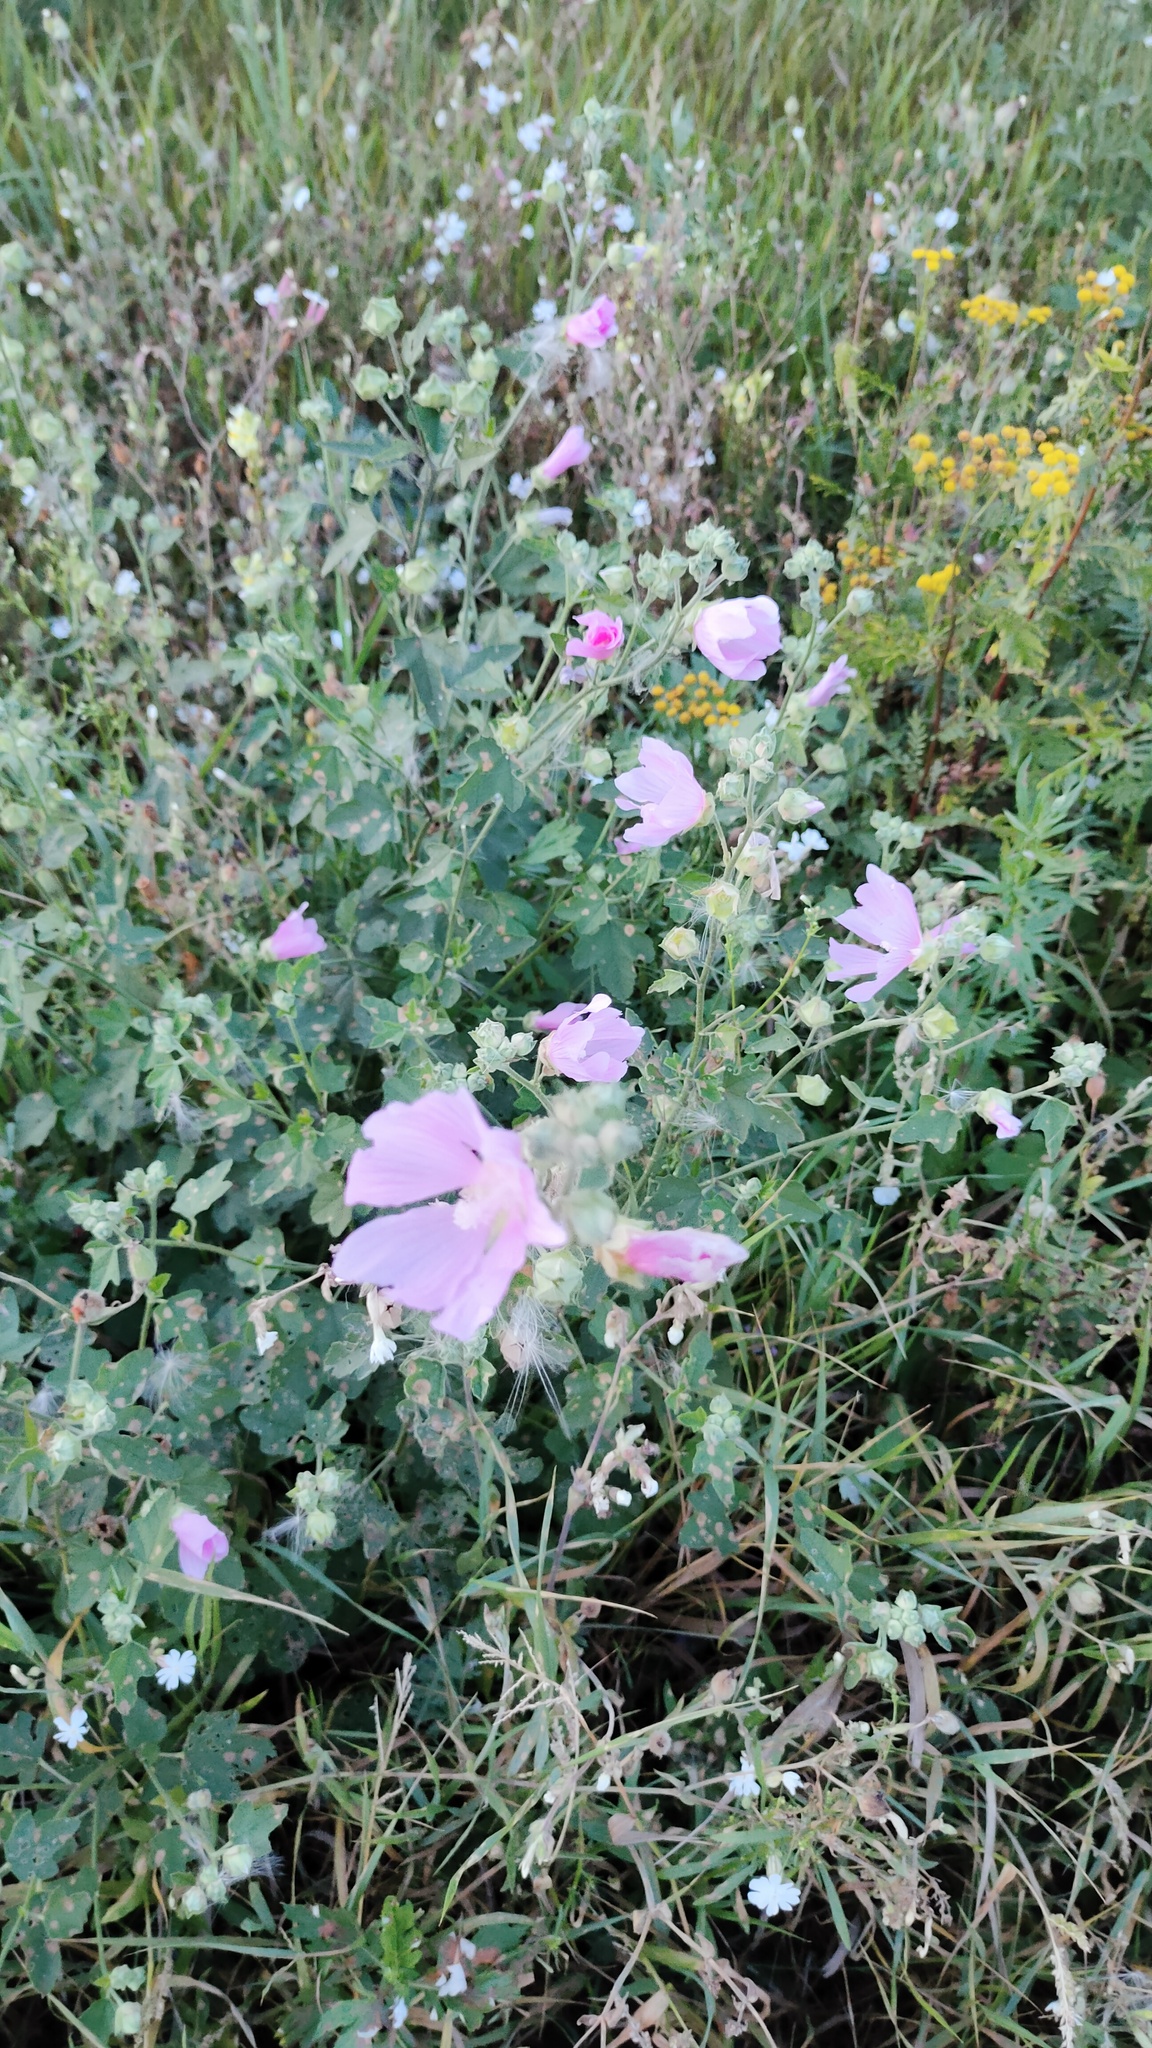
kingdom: Plantae
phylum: Tracheophyta
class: Magnoliopsida
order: Malvales
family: Malvaceae
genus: Malva
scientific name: Malva thuringiaca
